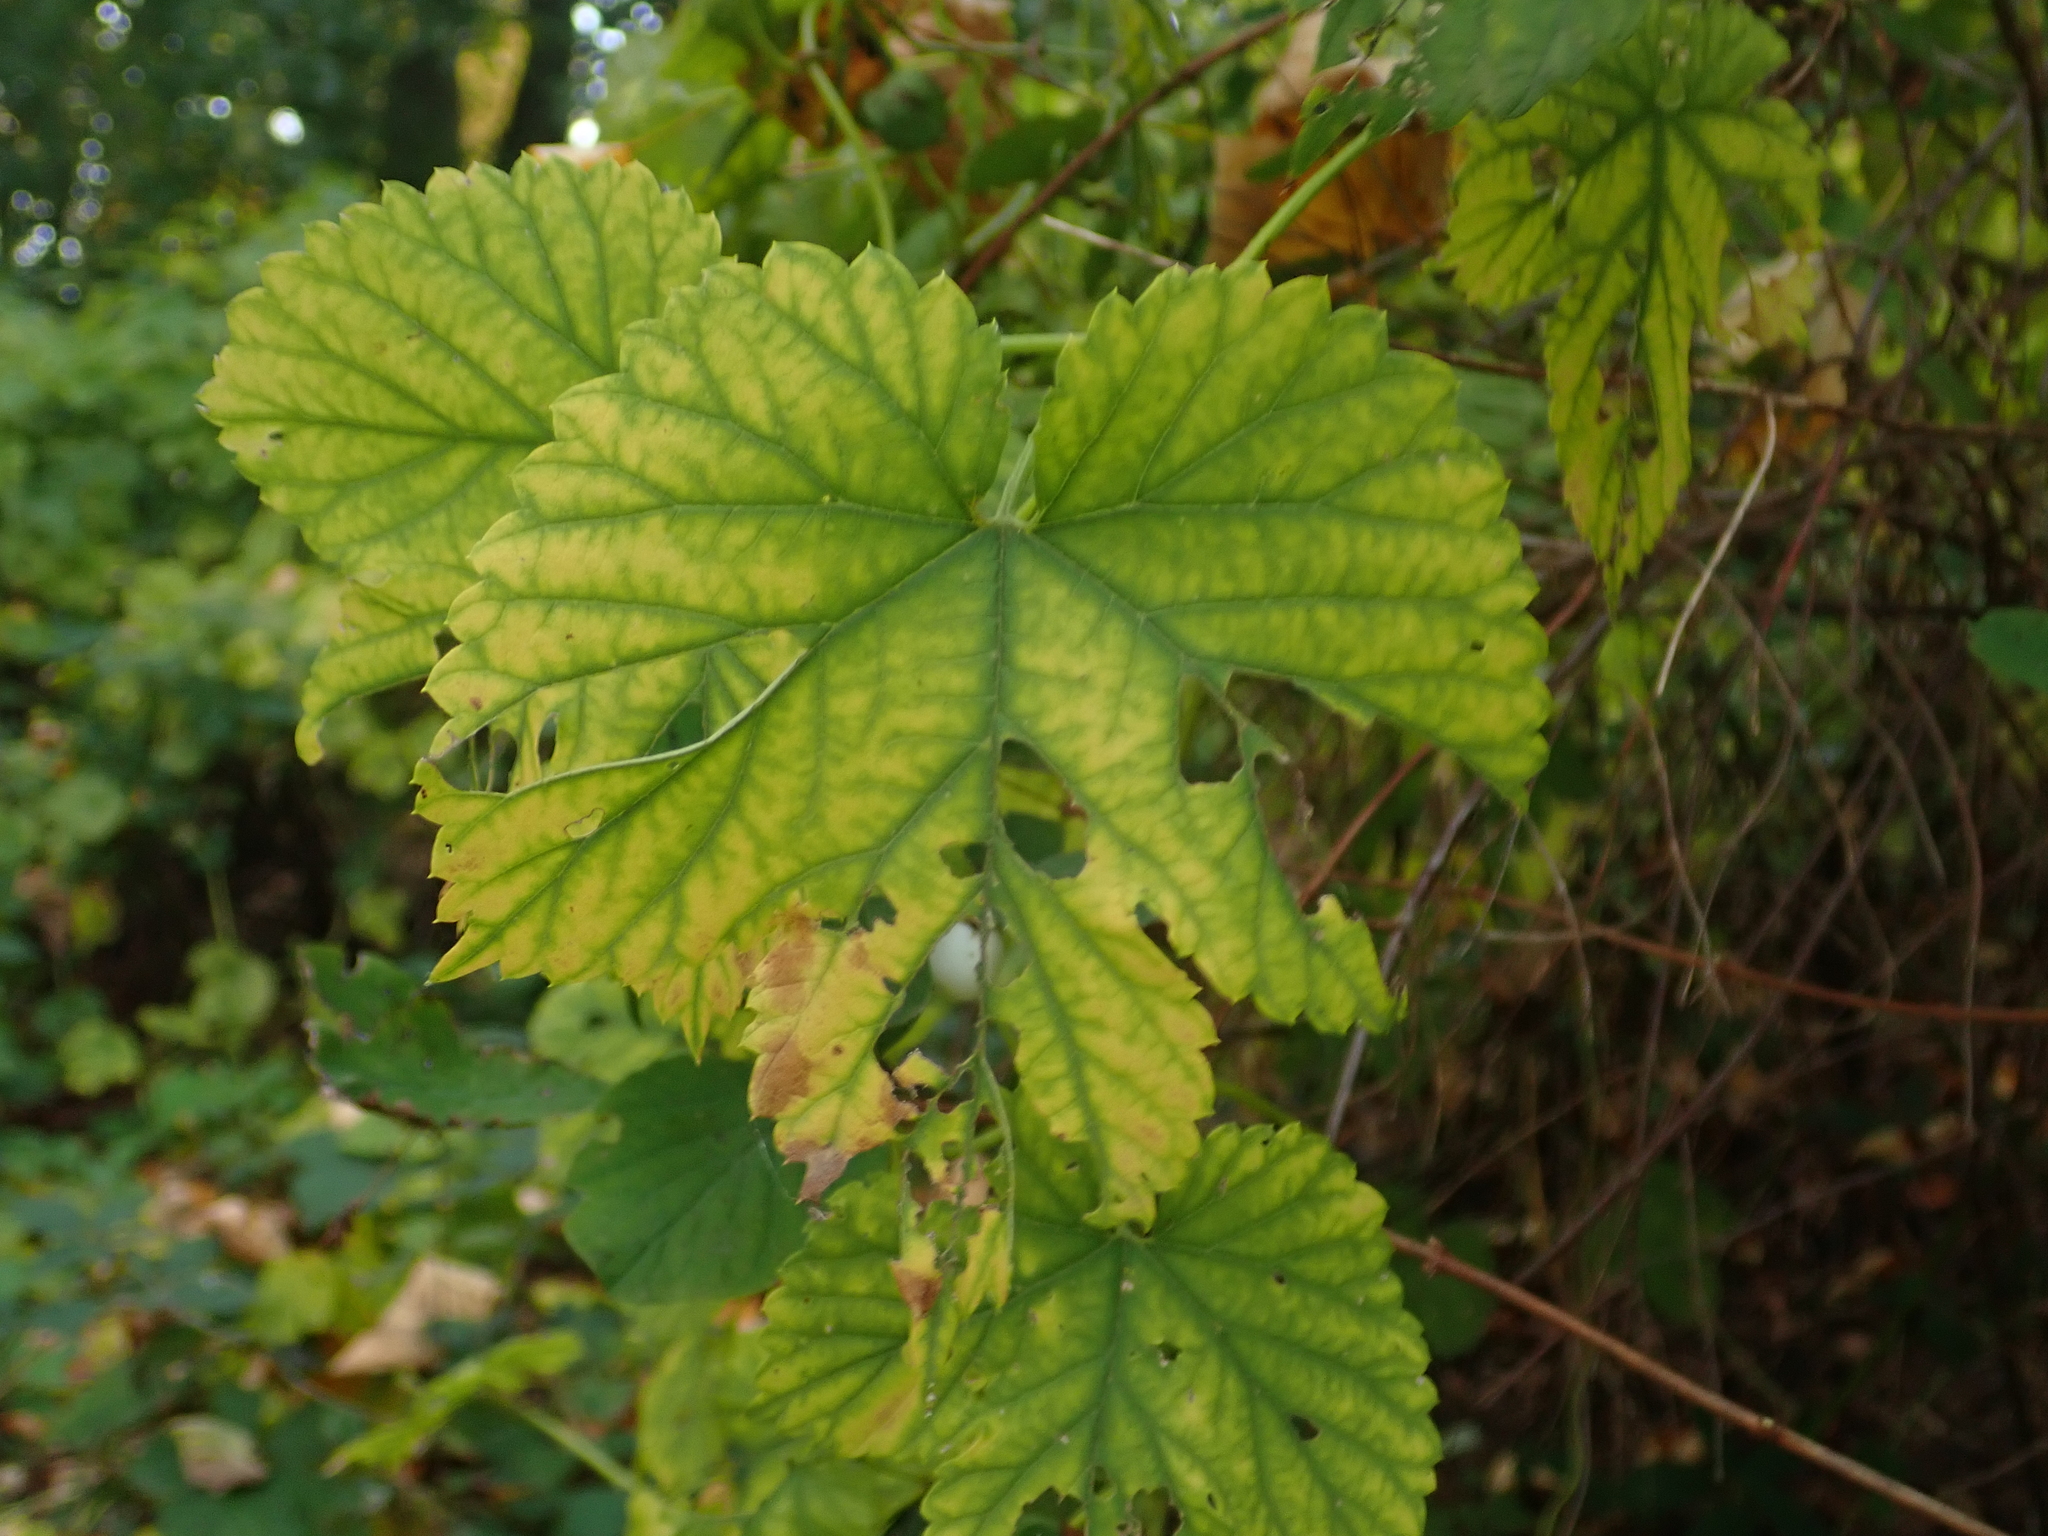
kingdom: Plantae
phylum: Tracheophyta
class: Magnoliopsida
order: Rosales
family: Cannabaceae
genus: Humulus
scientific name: Humulus lupulus
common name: Hop
